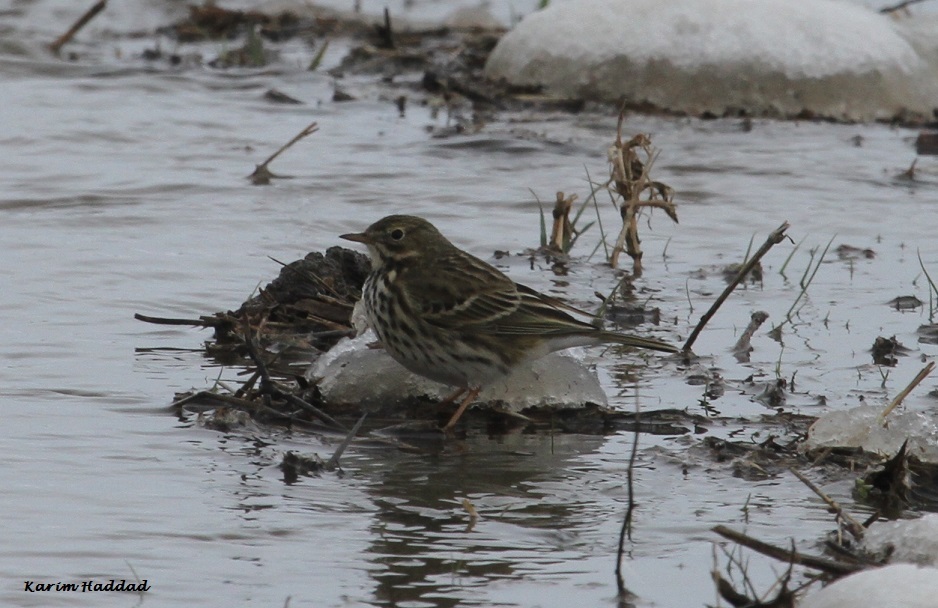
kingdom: Animalia
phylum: Chordata
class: Aves
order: Passeriformes
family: Motacillidae
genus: Anthus
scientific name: Anthus pratensis
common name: Meadow pipit
